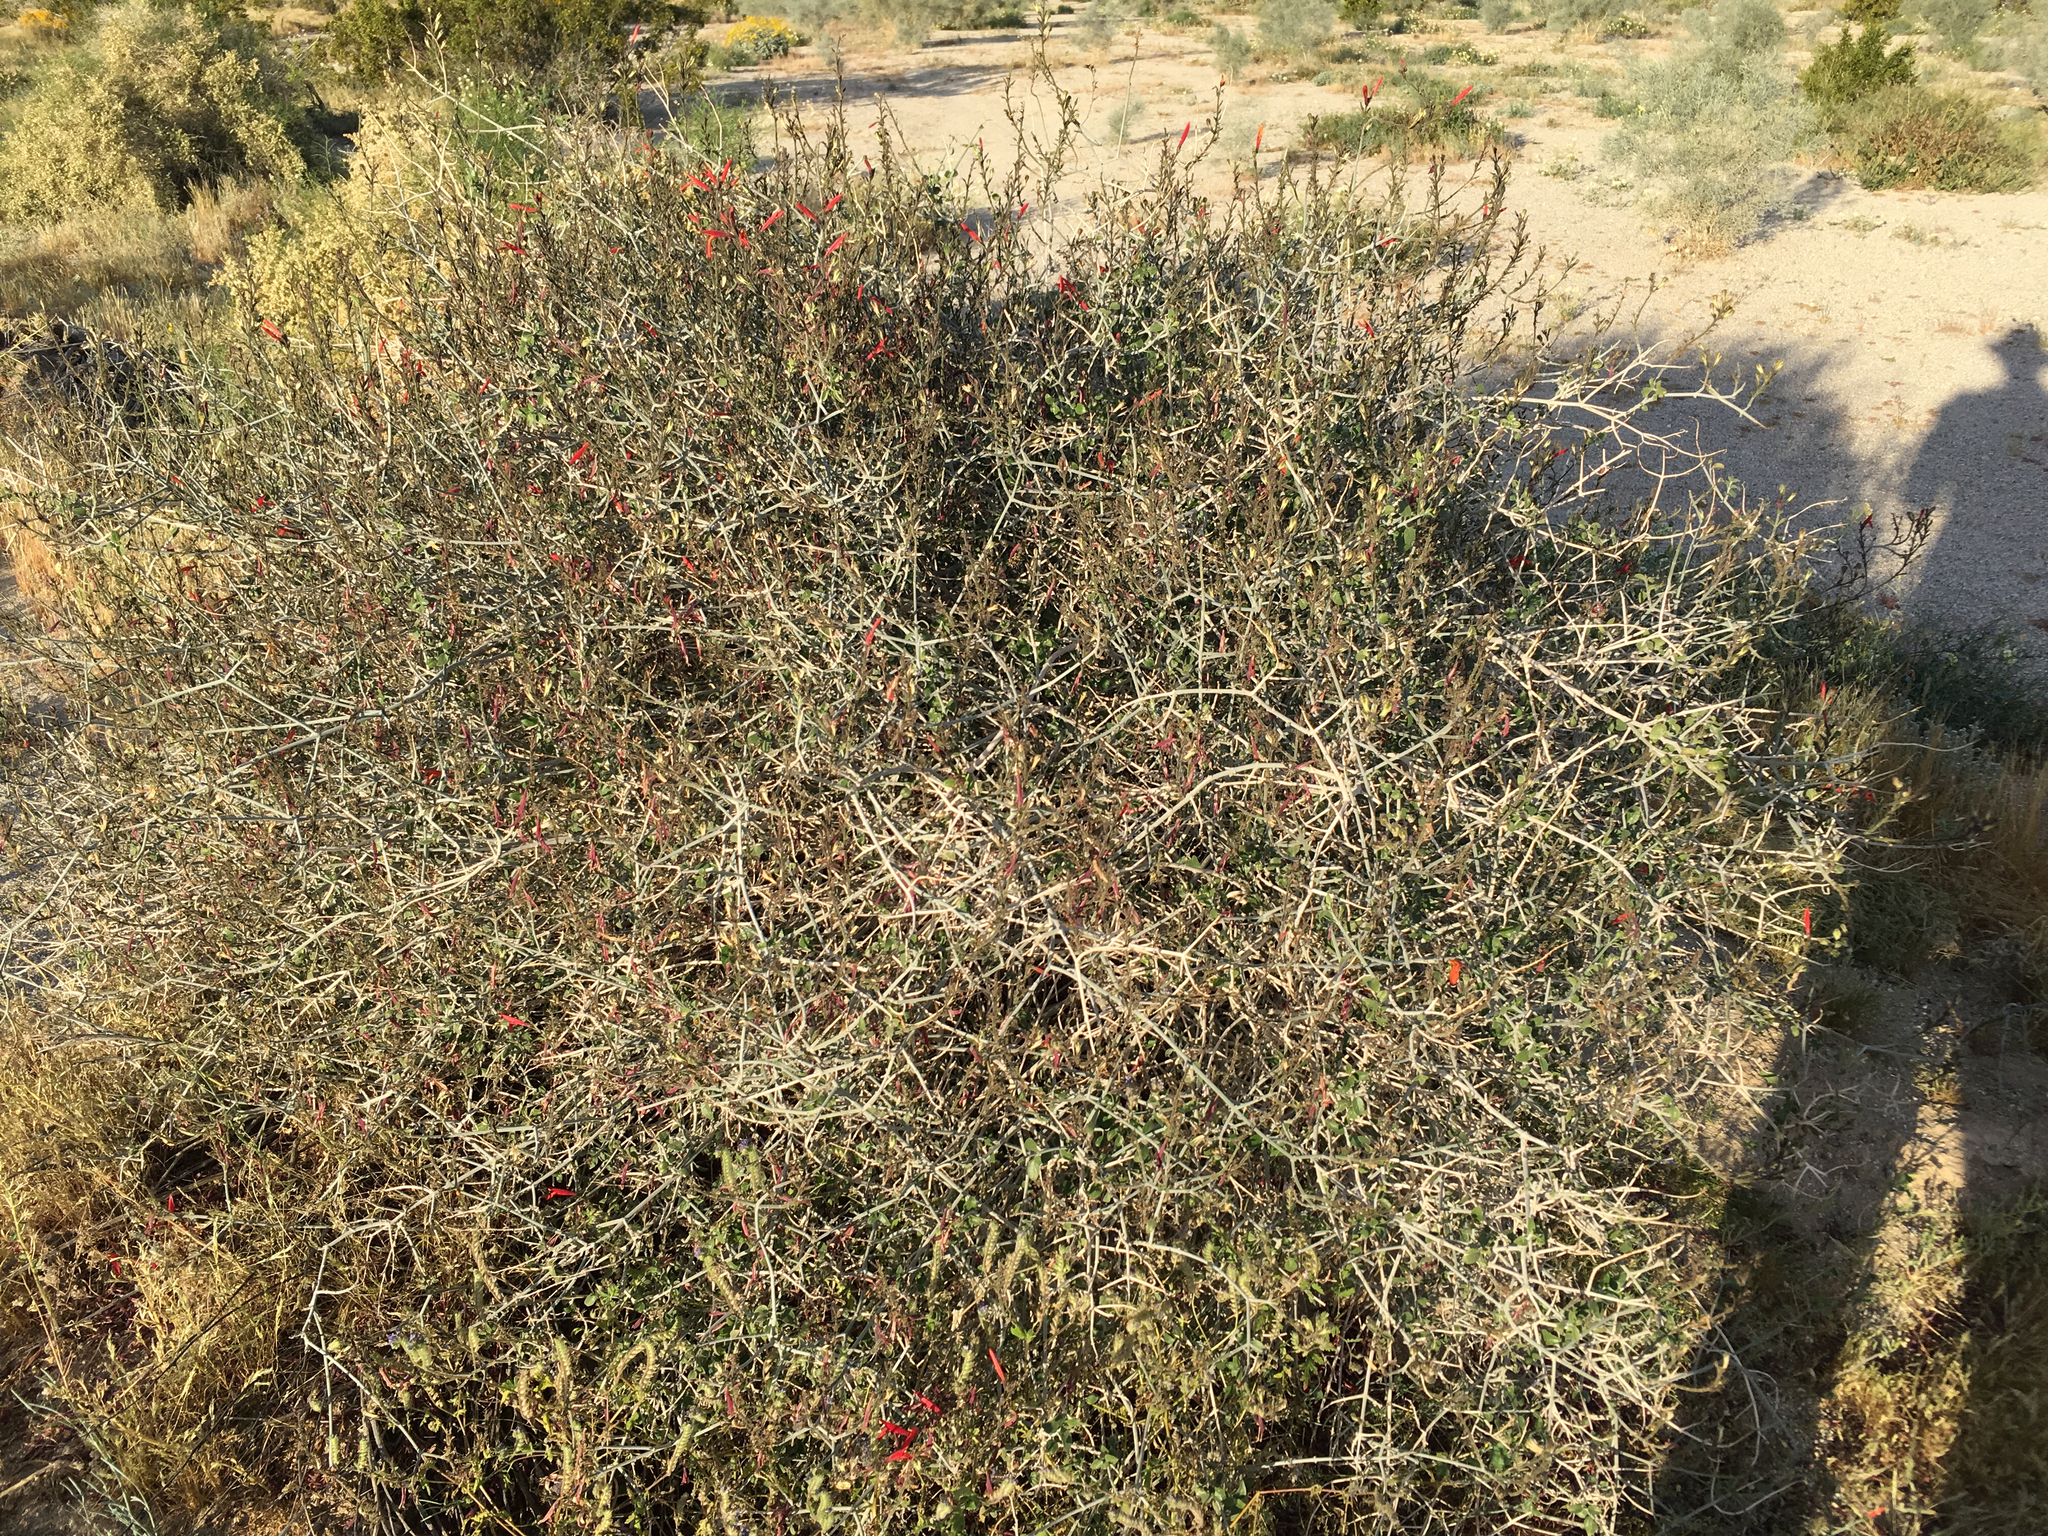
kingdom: Plantae
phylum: Tracheophyta
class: Magnoliopsida
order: Lamiales
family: Acanthaceae
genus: Justicia
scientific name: Justicia californica
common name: Chuparosa-honeysuckle
